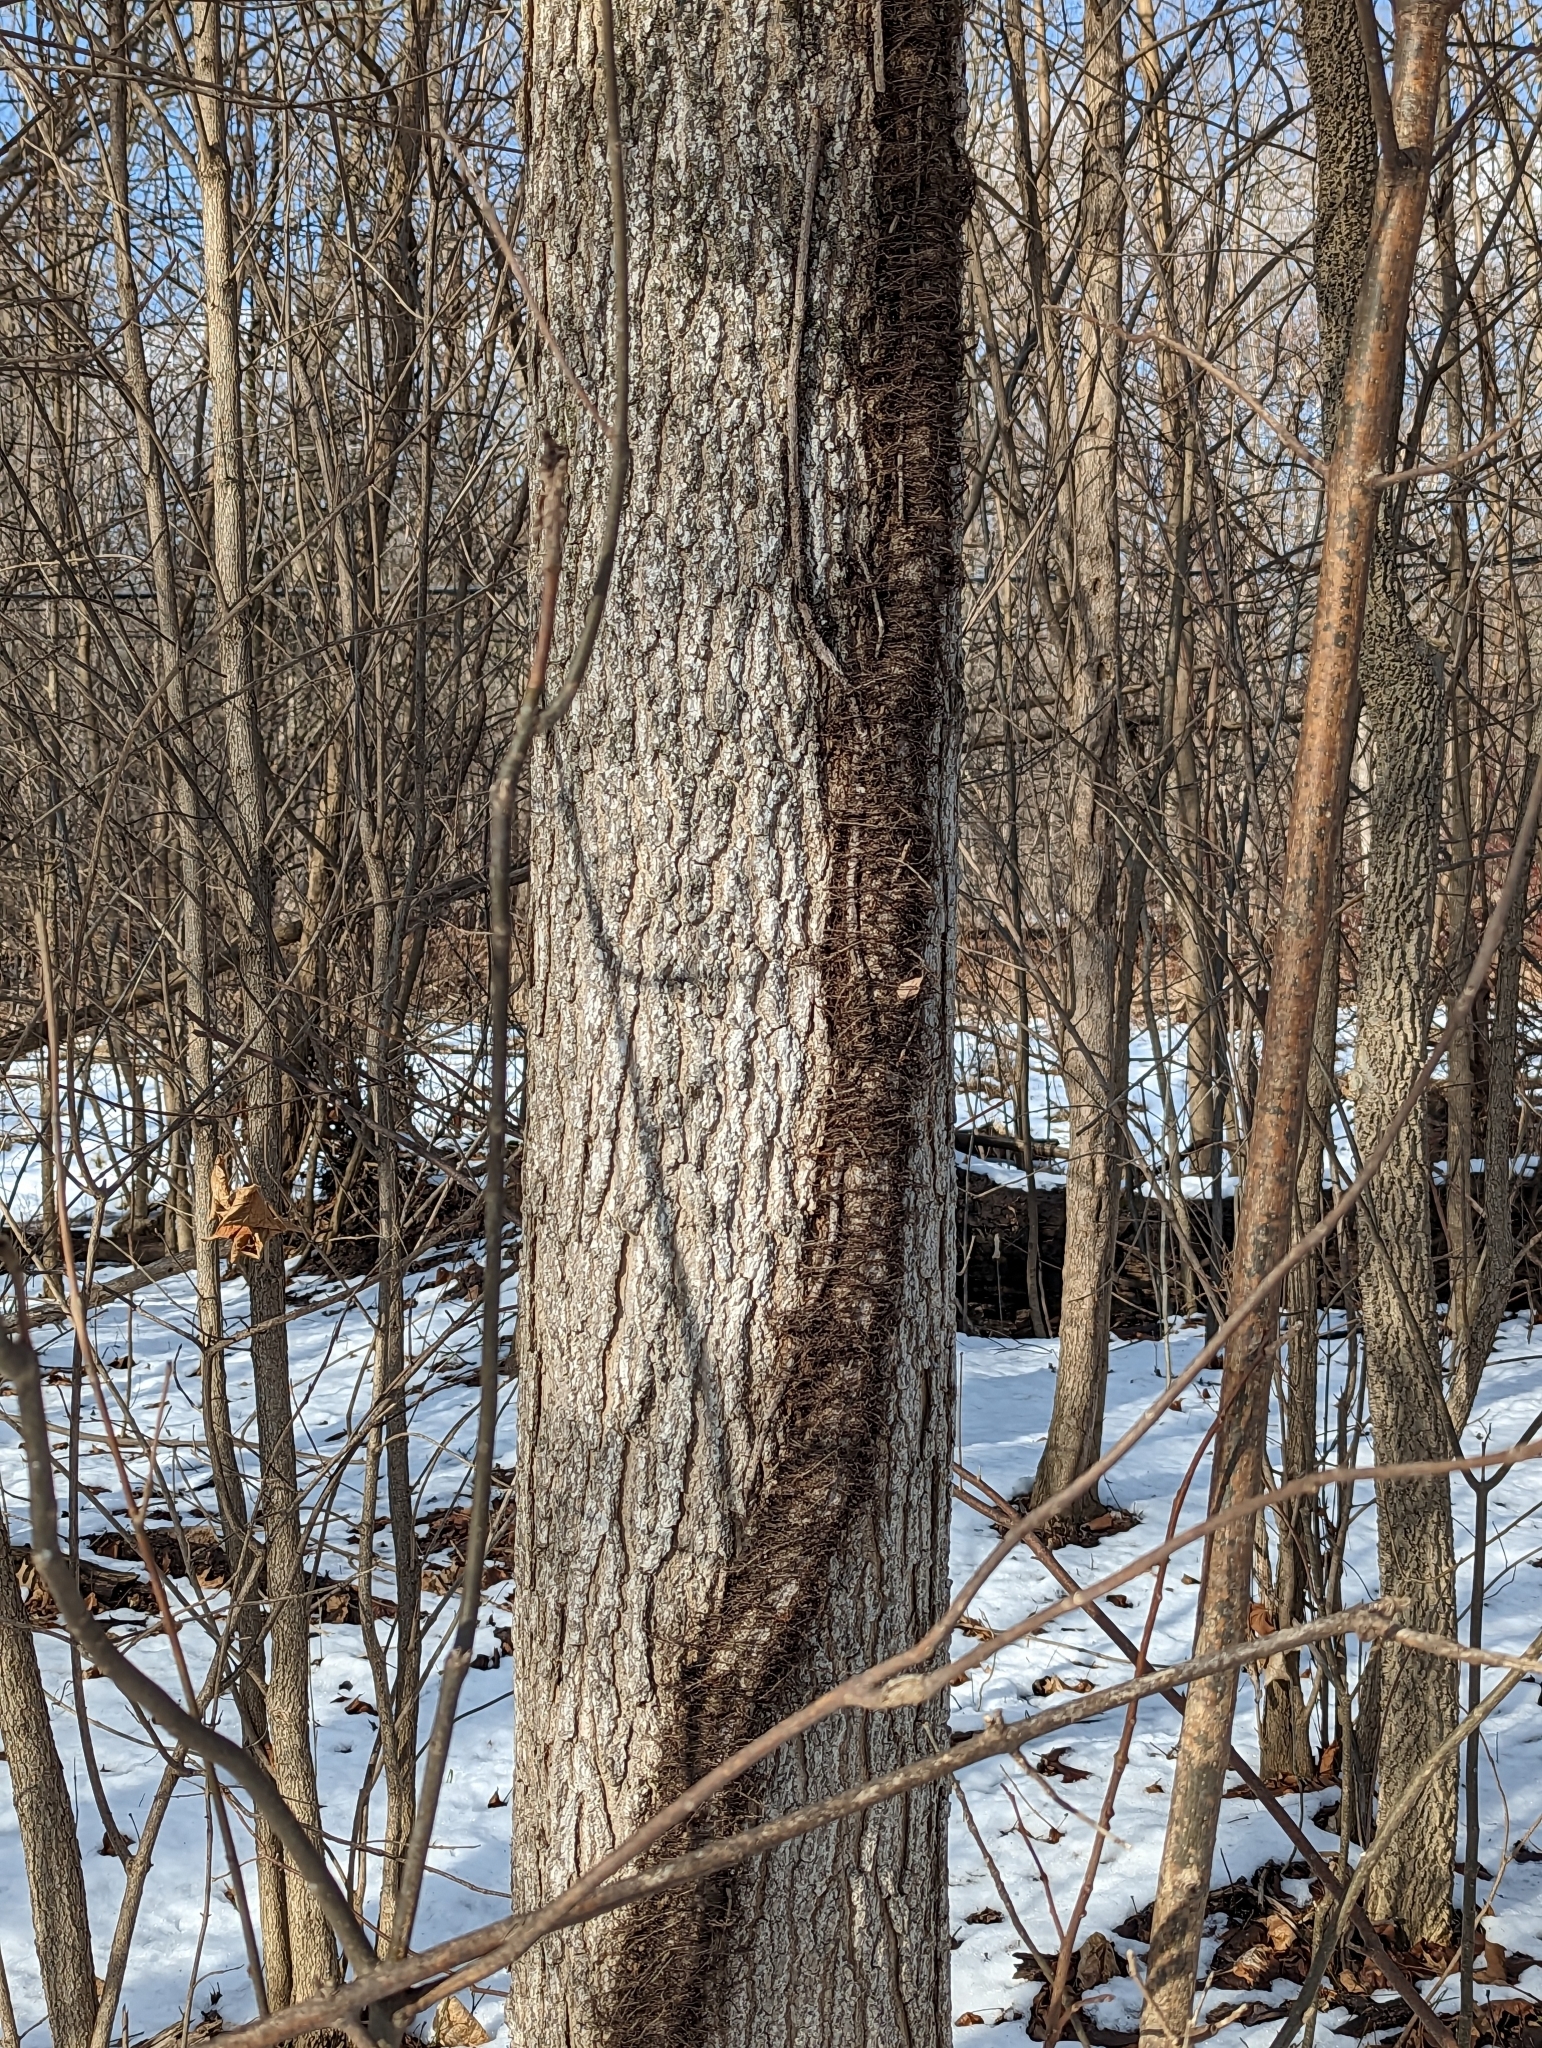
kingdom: Plantae
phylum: Tracheophyta
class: Magnoliopsida
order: Sapindales
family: Anacardiaceae
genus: Toxicodendron
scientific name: Toxicodendron radicans
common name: Poison ivy
